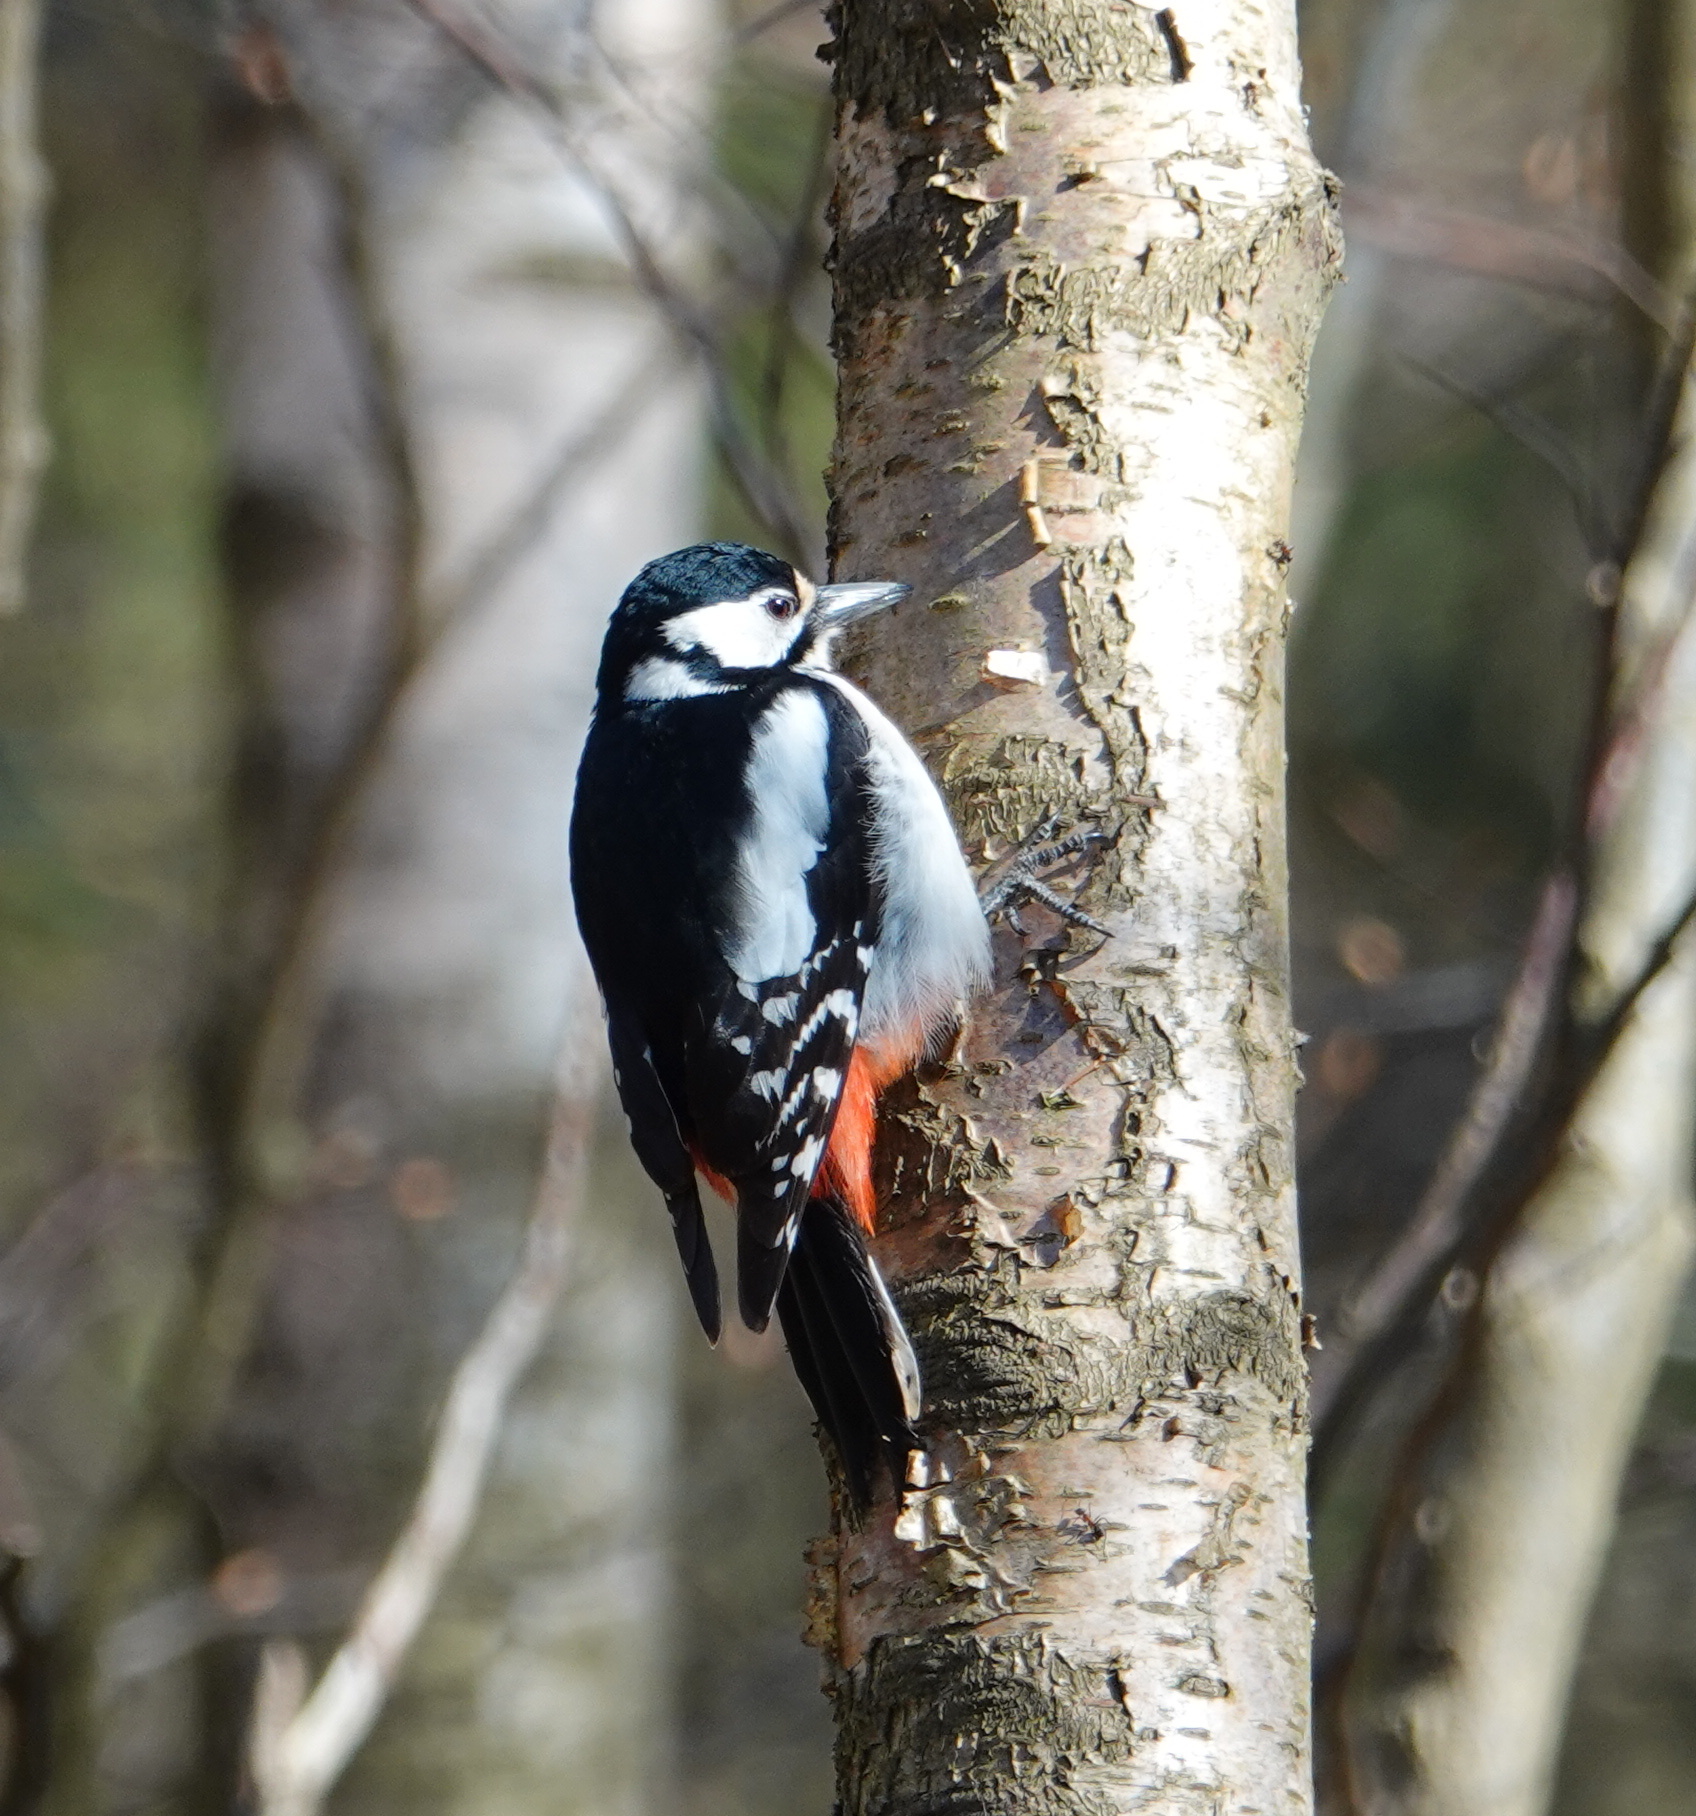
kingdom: Animalia
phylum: Chordata
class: Aves
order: Piciformes
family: Picidae
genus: Dendrocopos
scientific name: Dendrocopos major
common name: Great spotted woodpecker
